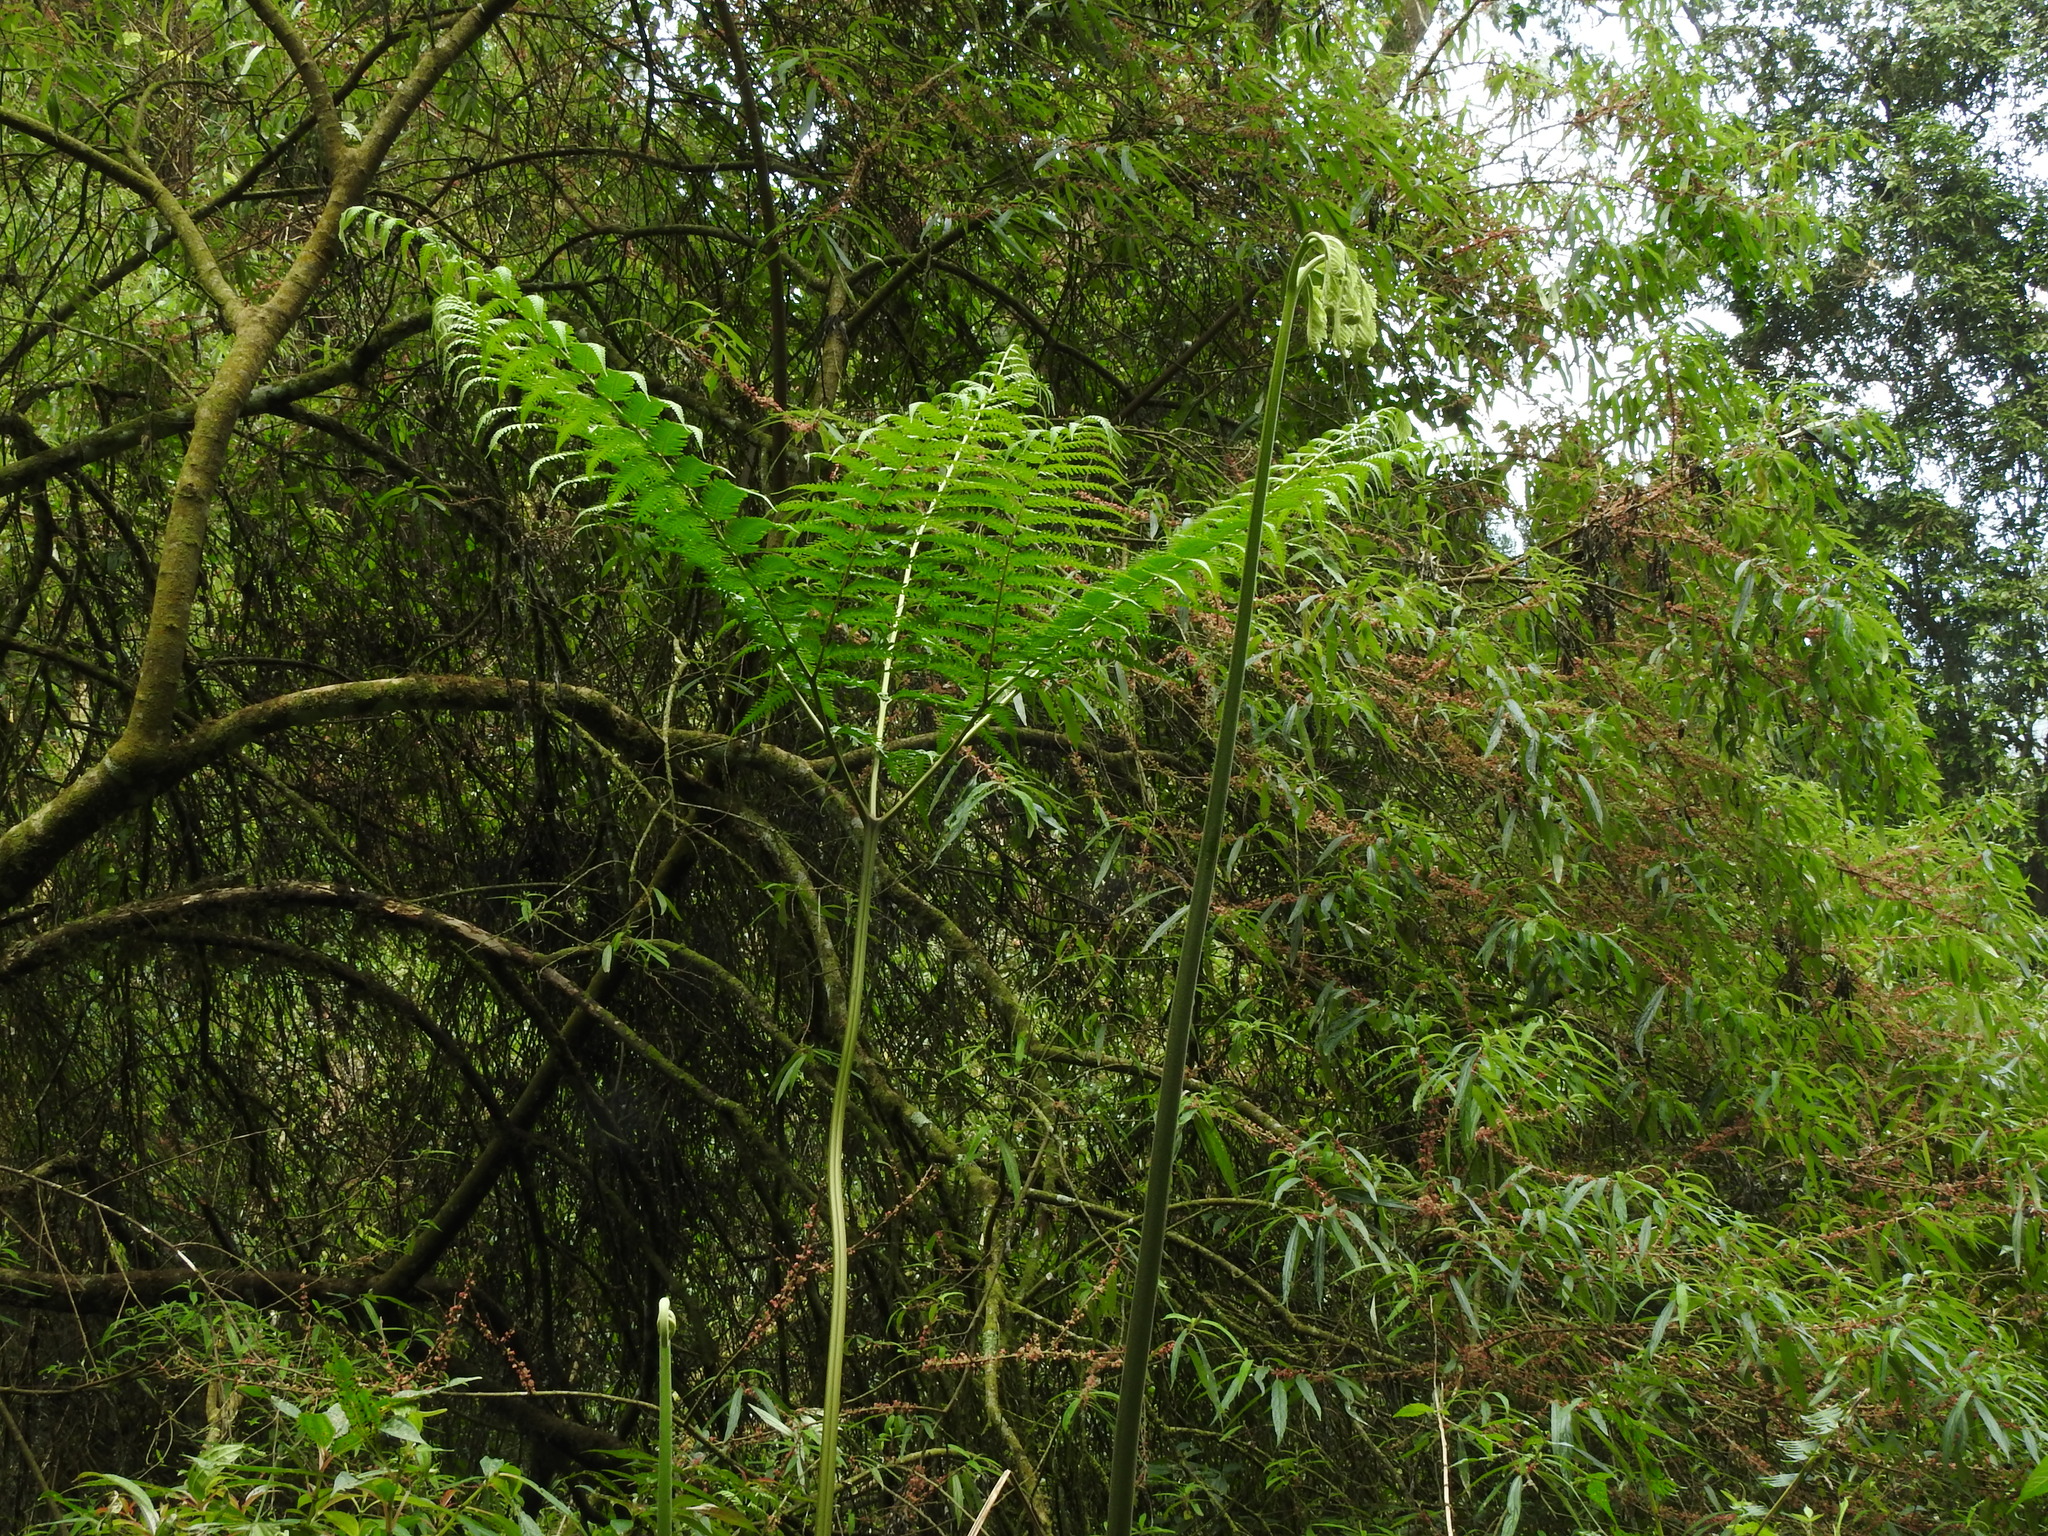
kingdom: Plantae
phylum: Tracheophyta
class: Polypodiopsida
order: Polypodiales
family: Pteridaceae
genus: Pteris
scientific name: Pteris wallichiana
